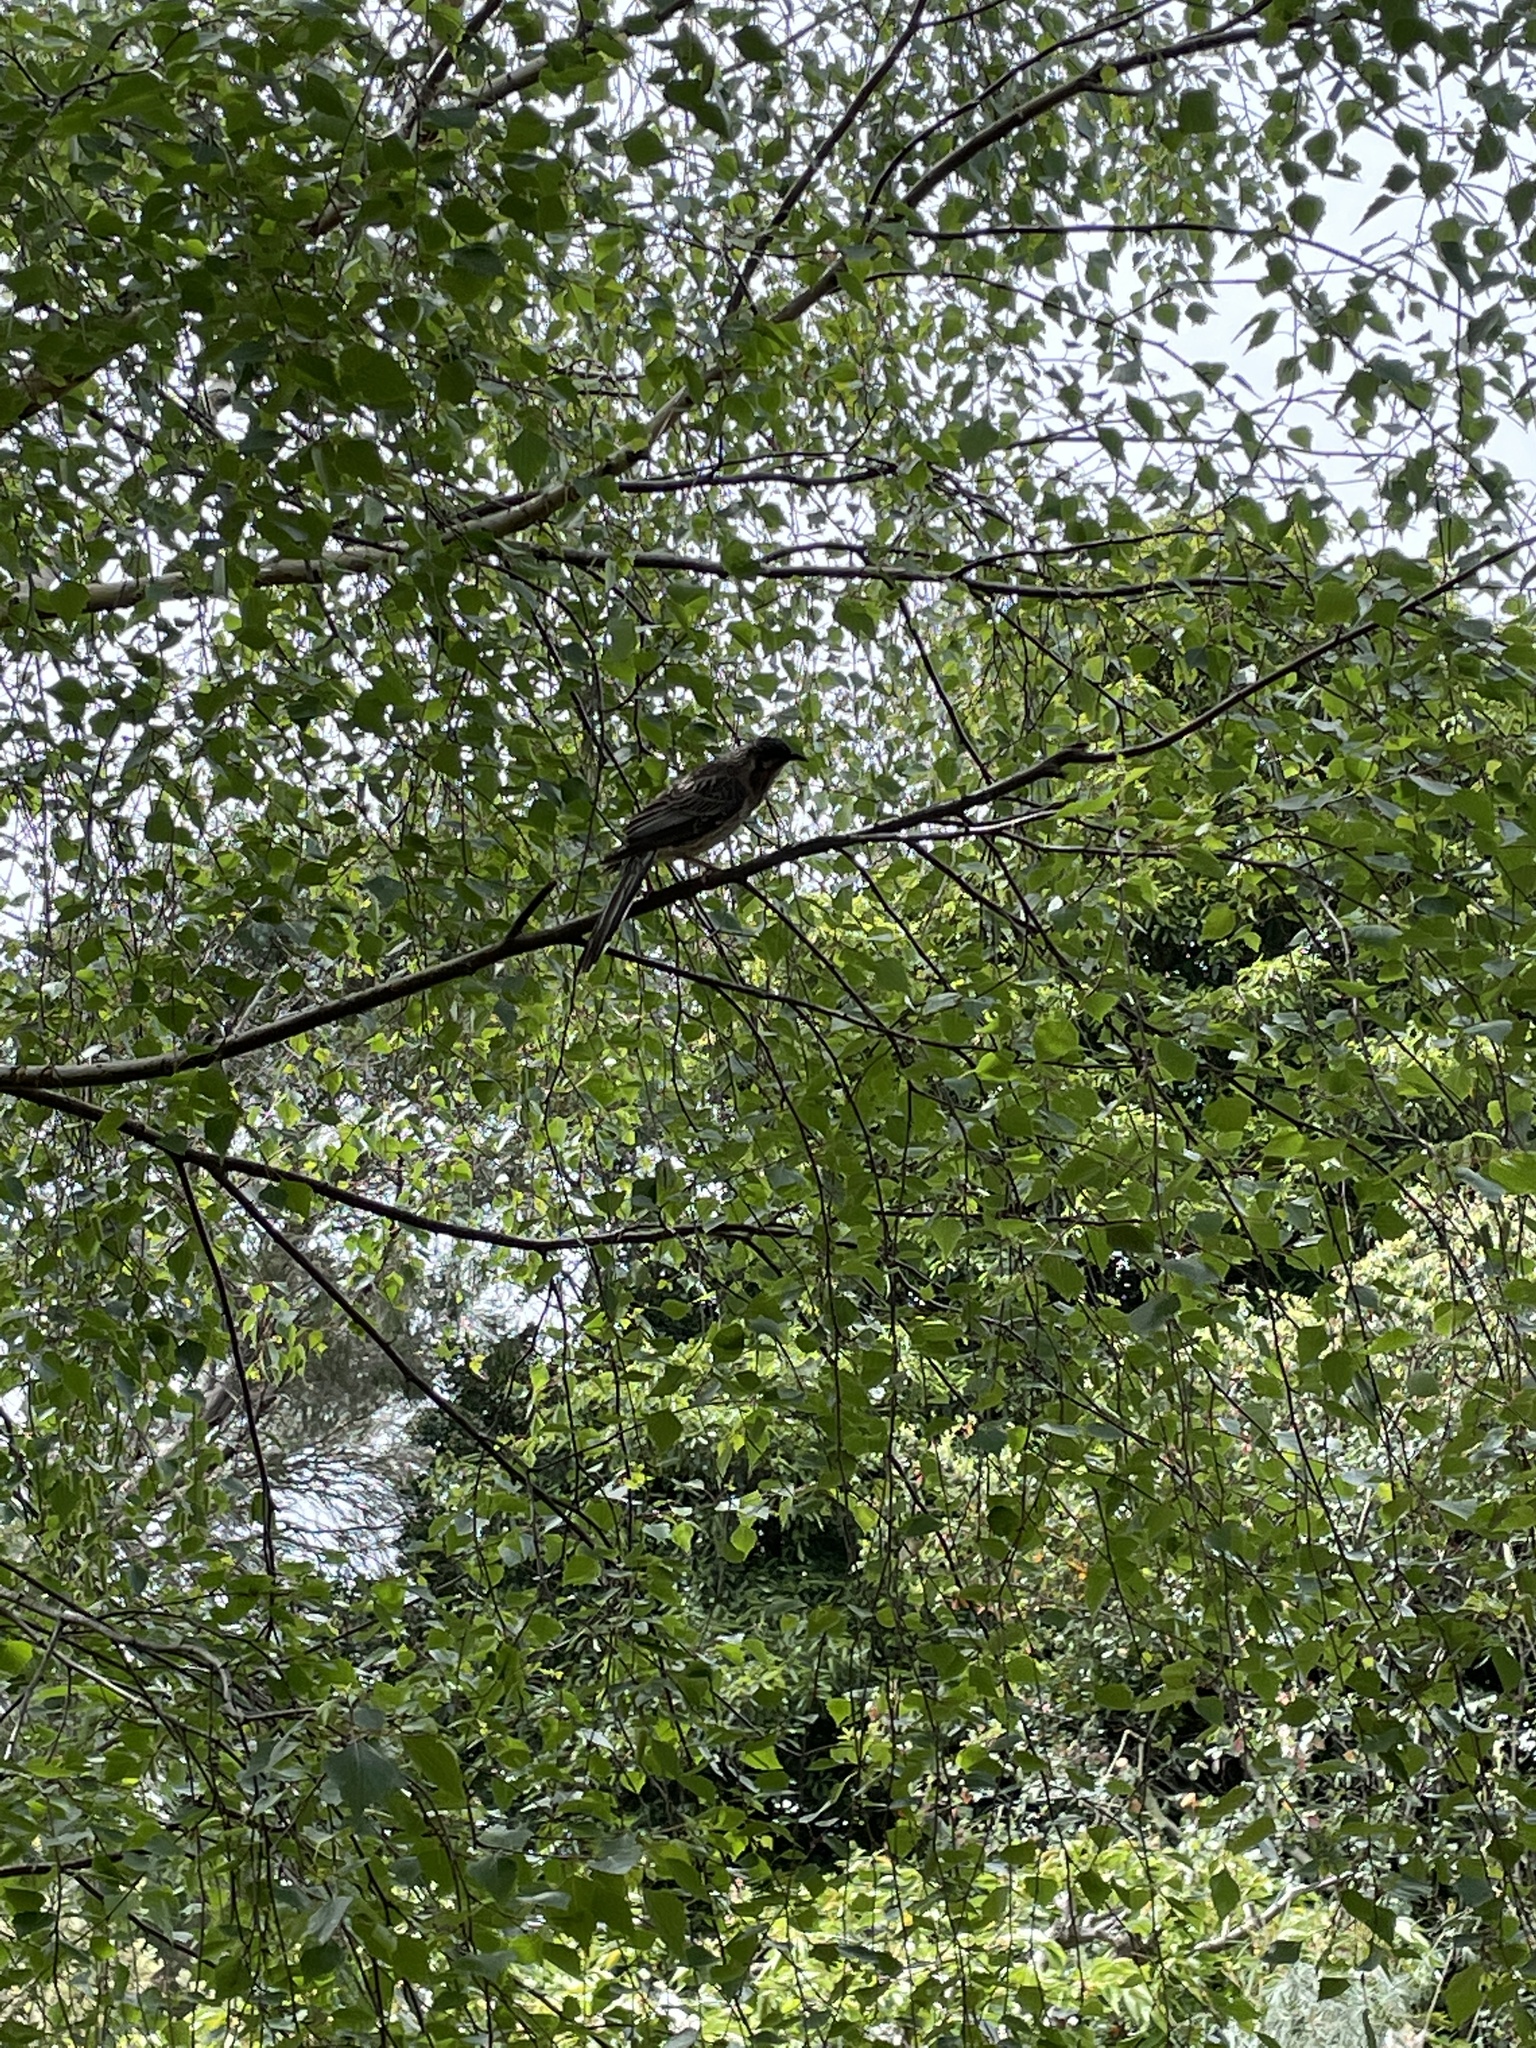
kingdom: Animalia
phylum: Chordata
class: Aves
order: Passeriformes
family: Meliphagidae
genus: Anthochaera
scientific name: Anthochaera carunculata
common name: Red wattlebird
